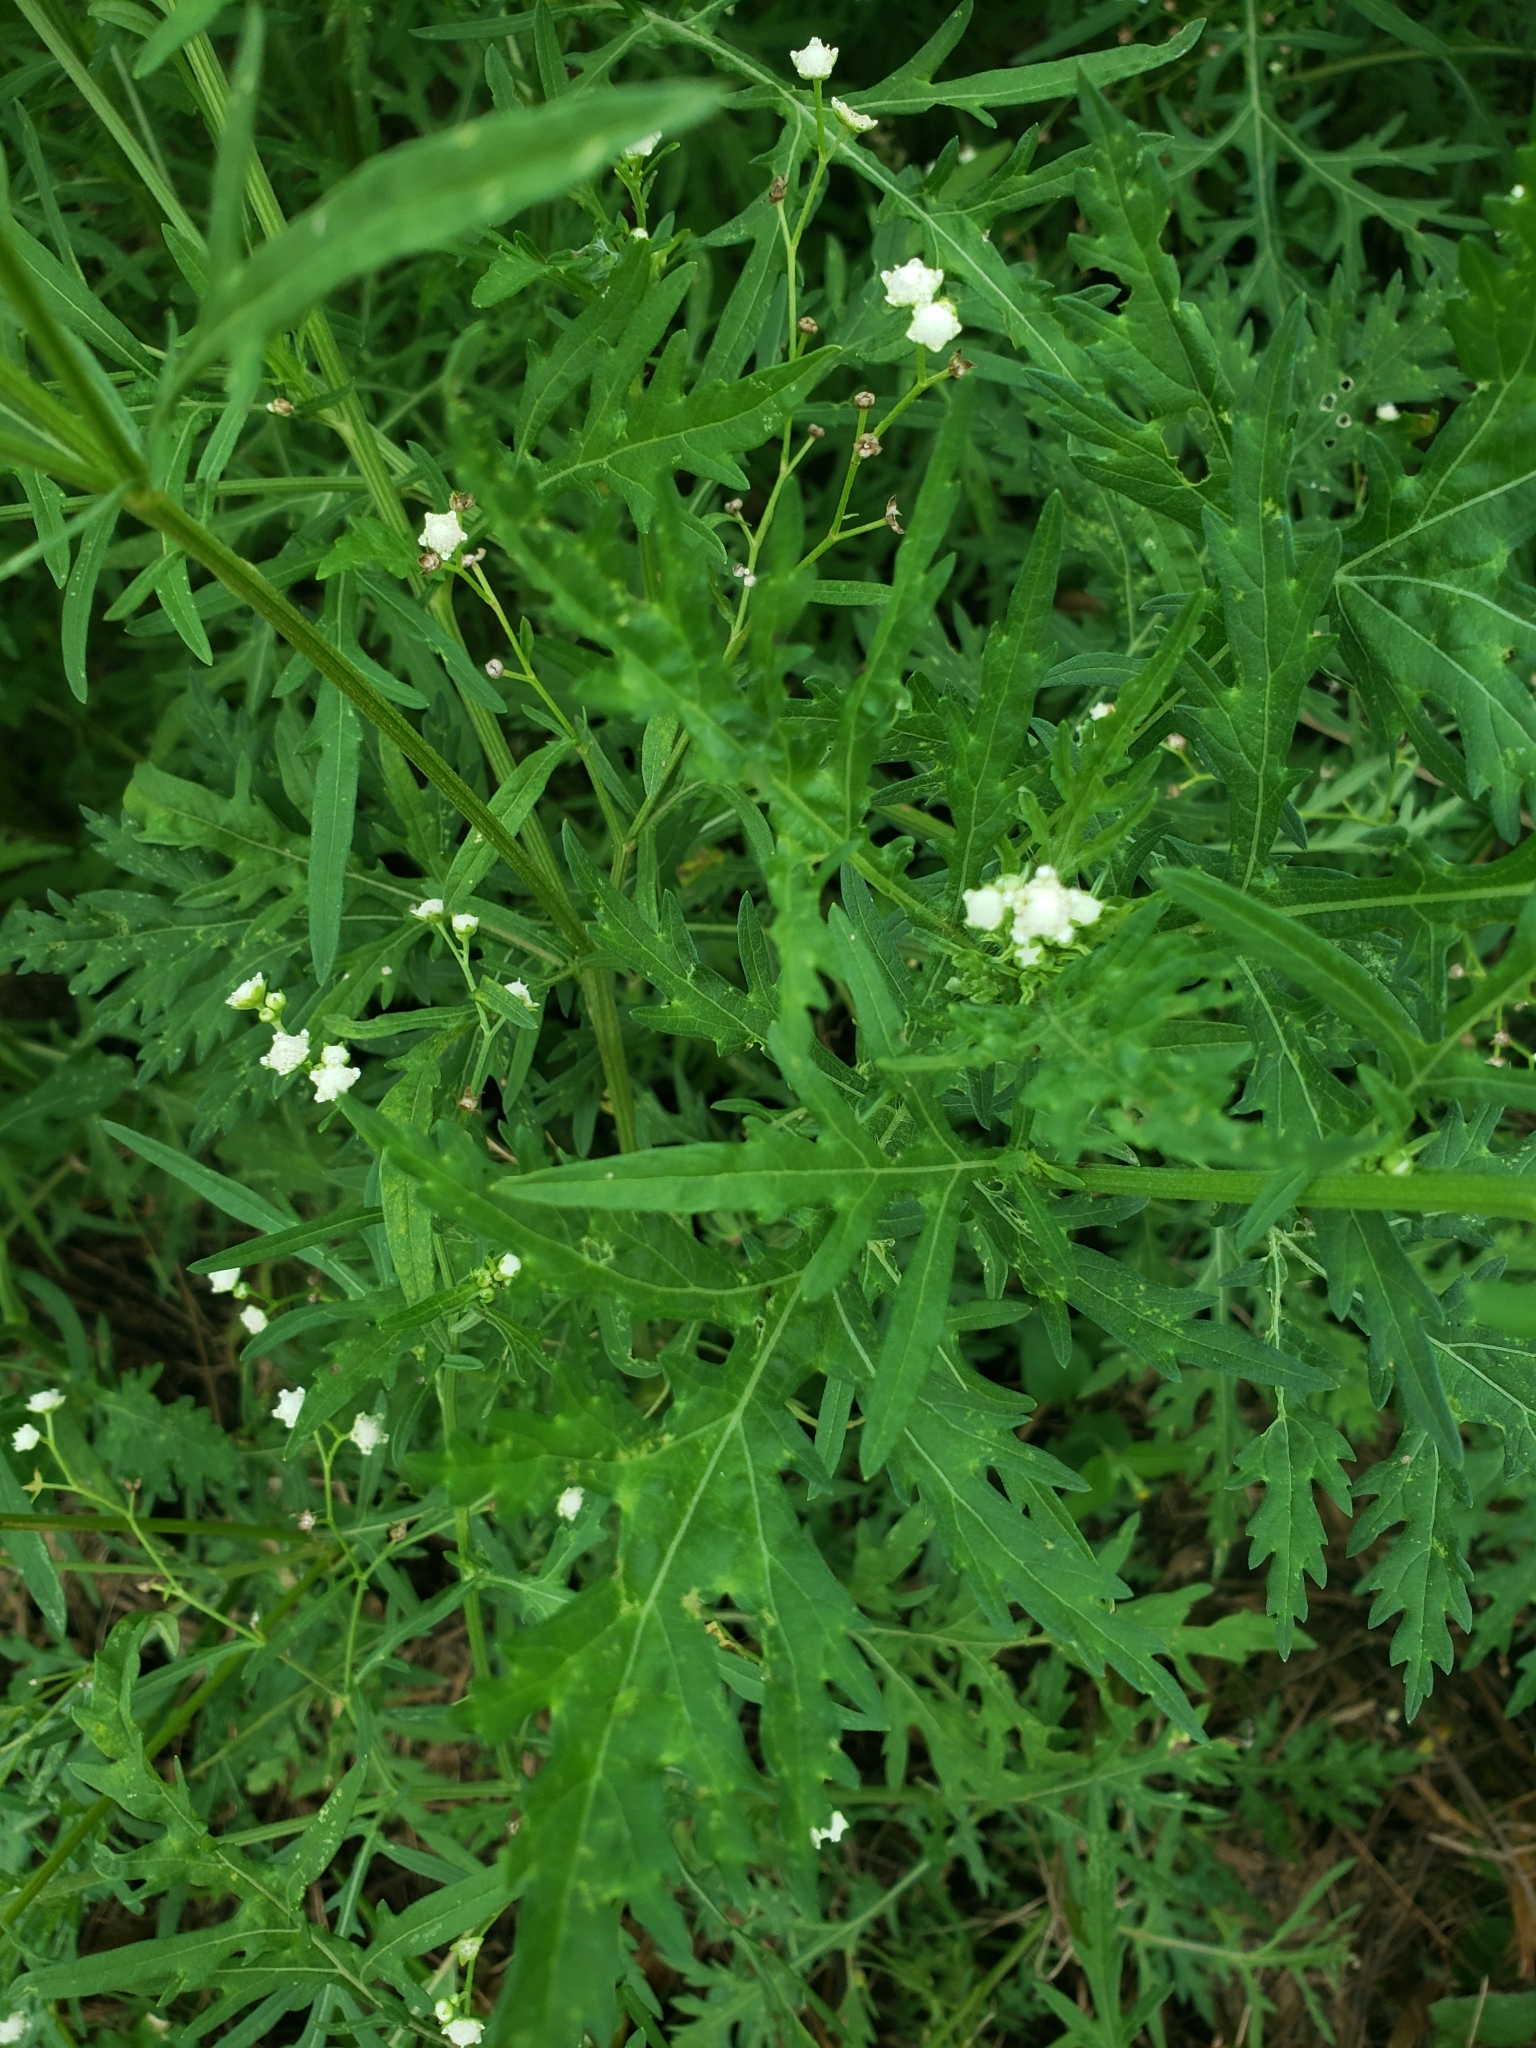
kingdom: Plantae
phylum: Tracheophyta
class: Magnoliopsida
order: Asterales
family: Asteraceae
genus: Parthenium
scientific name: Parthenium hysterophorus
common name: Santa maria feverfew
